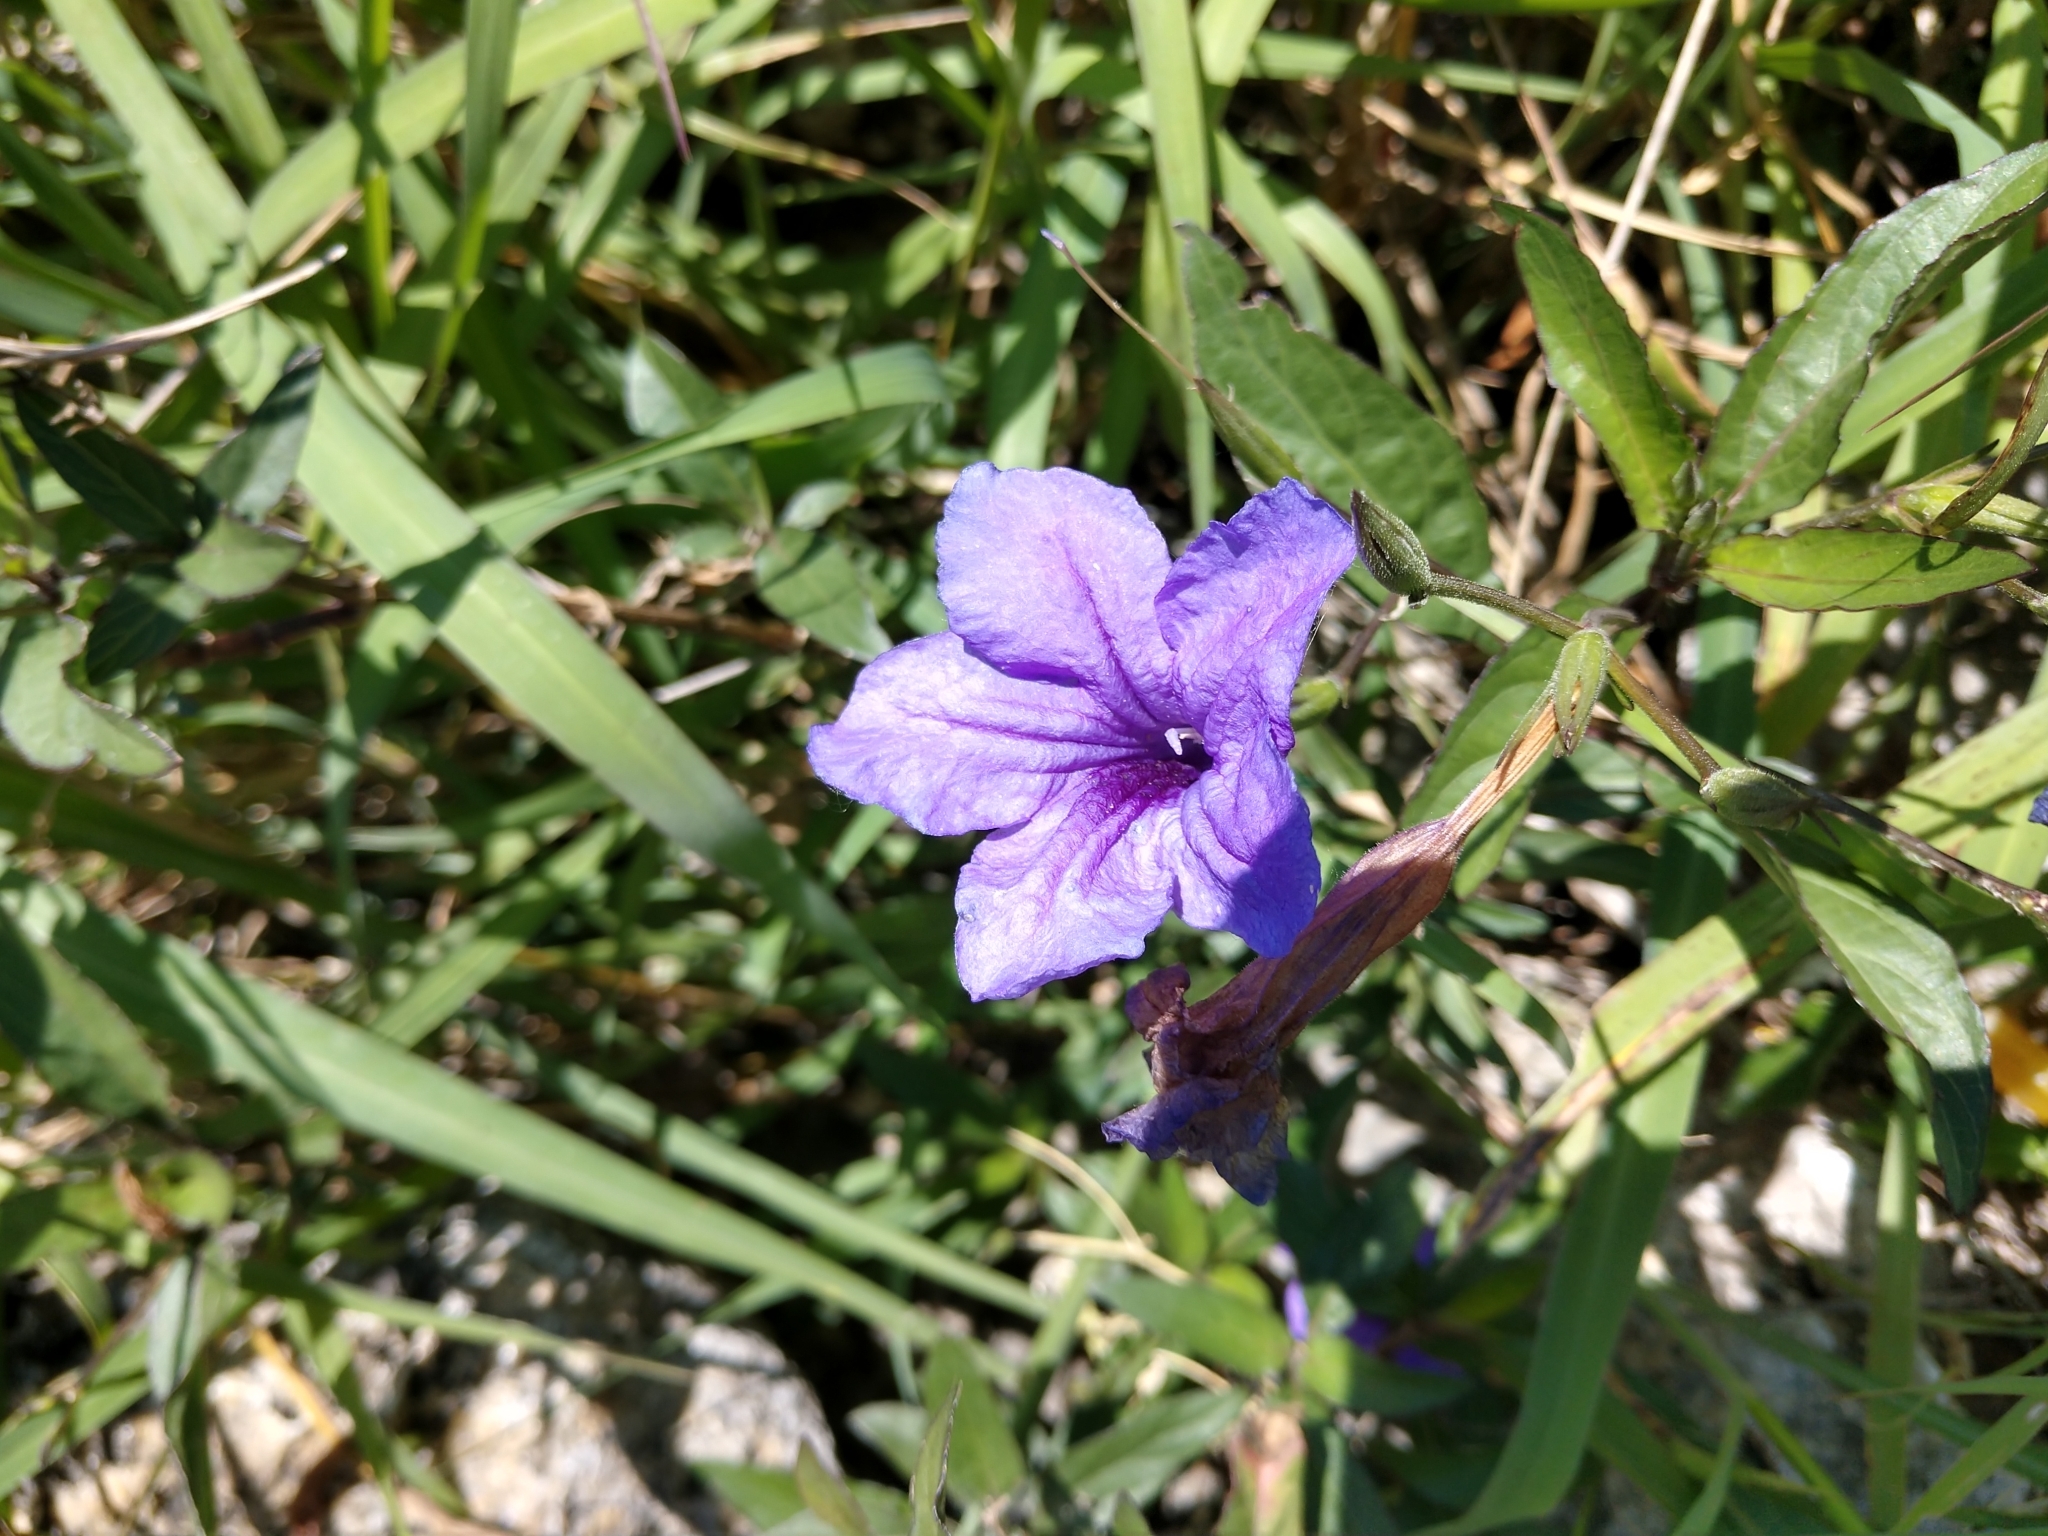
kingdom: Plantae
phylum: Tracheophyta
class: Magnoliopsida
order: Lamiales
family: Acanthaceae
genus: Ruellia
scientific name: Ruellia simplex
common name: Softseed wild petunia
